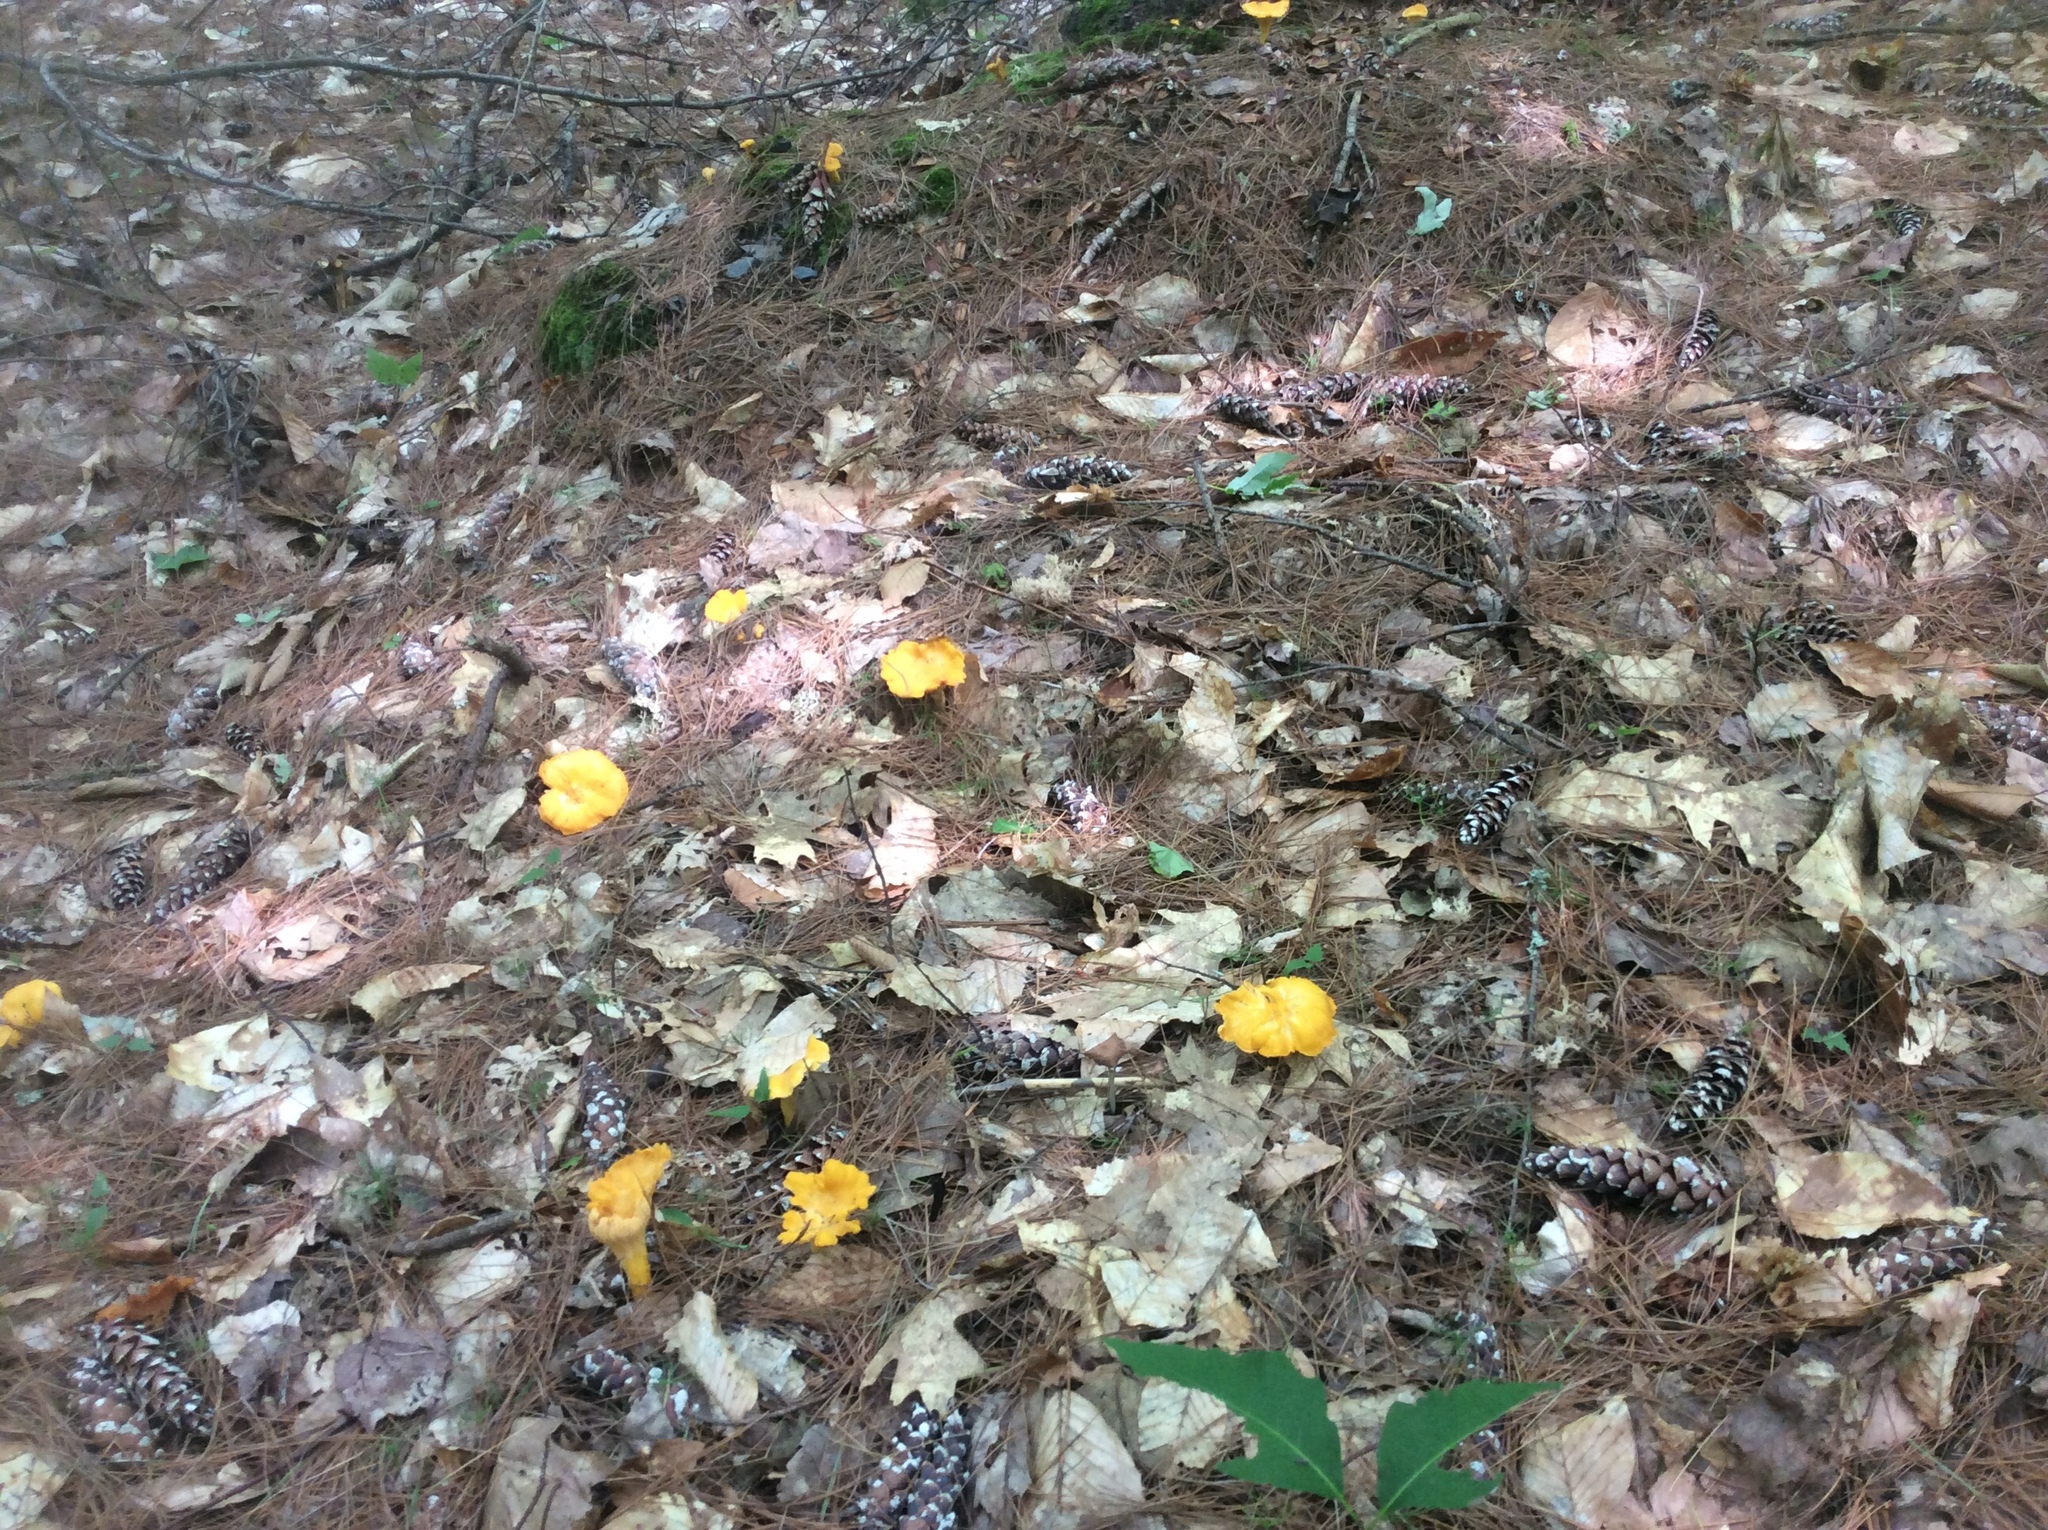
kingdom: Fungi
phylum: Basidiomycota
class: Agaricomycetes
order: Cantharellales
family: Hydnaceae
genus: Cantharellus
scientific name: Cantharellus enelensis
